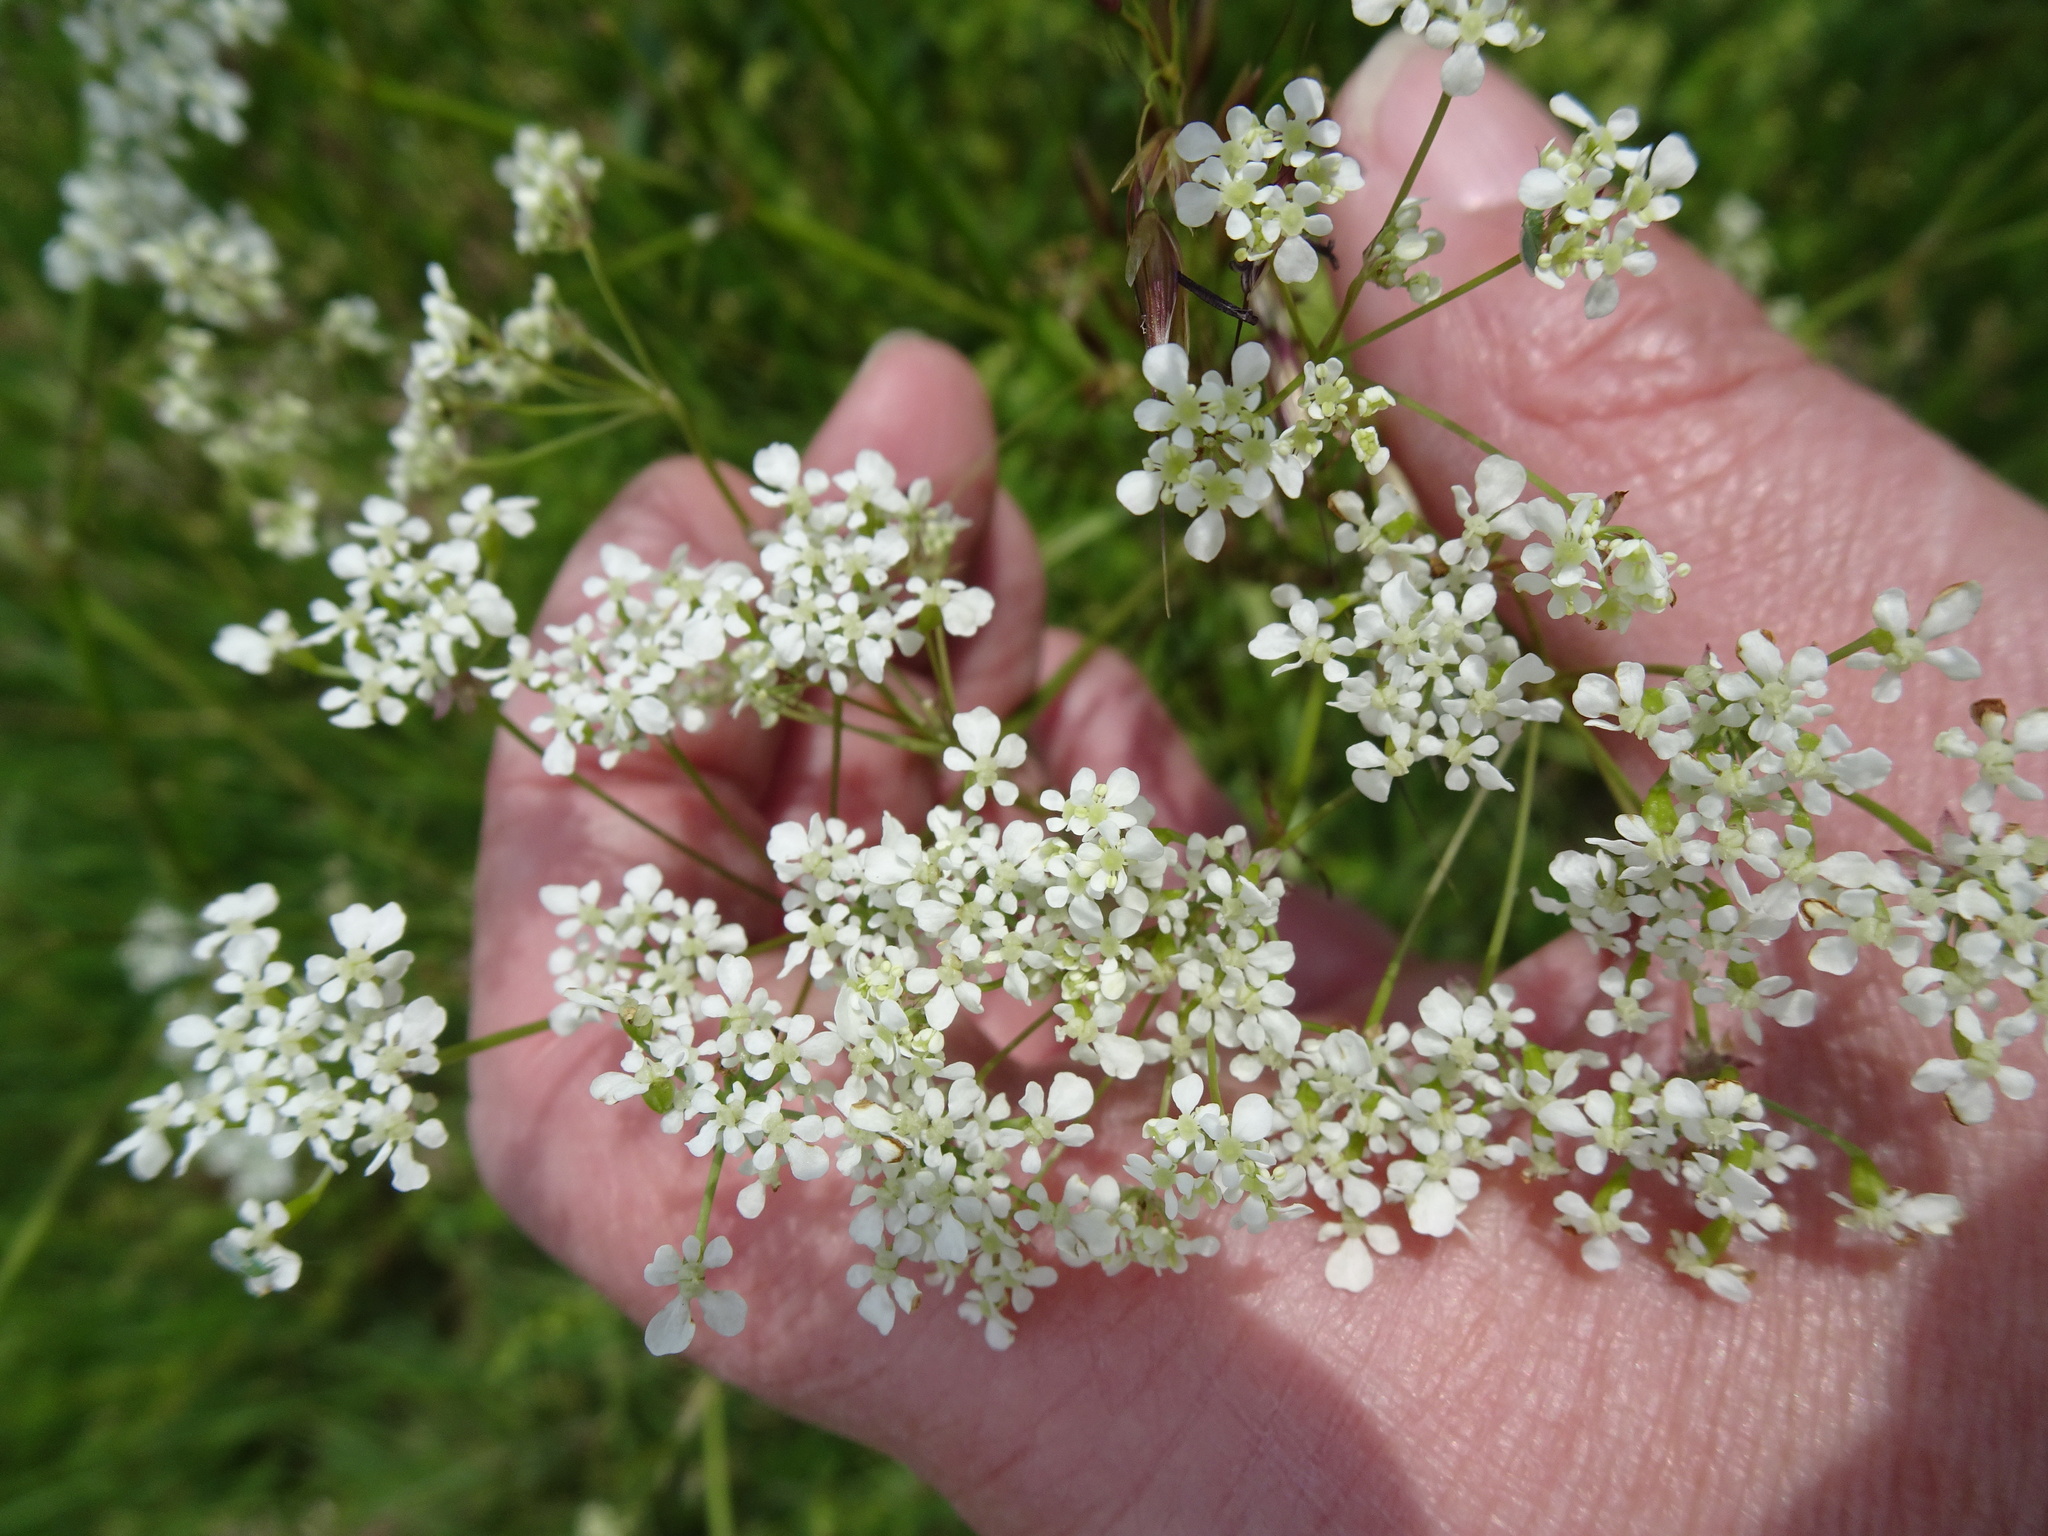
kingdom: Plantae
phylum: Tracheophyta
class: Magnoliopsida
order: Apiales
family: Apiaceae
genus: Anthriscus
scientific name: Anthriscus sylvestris
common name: Cow parsley
